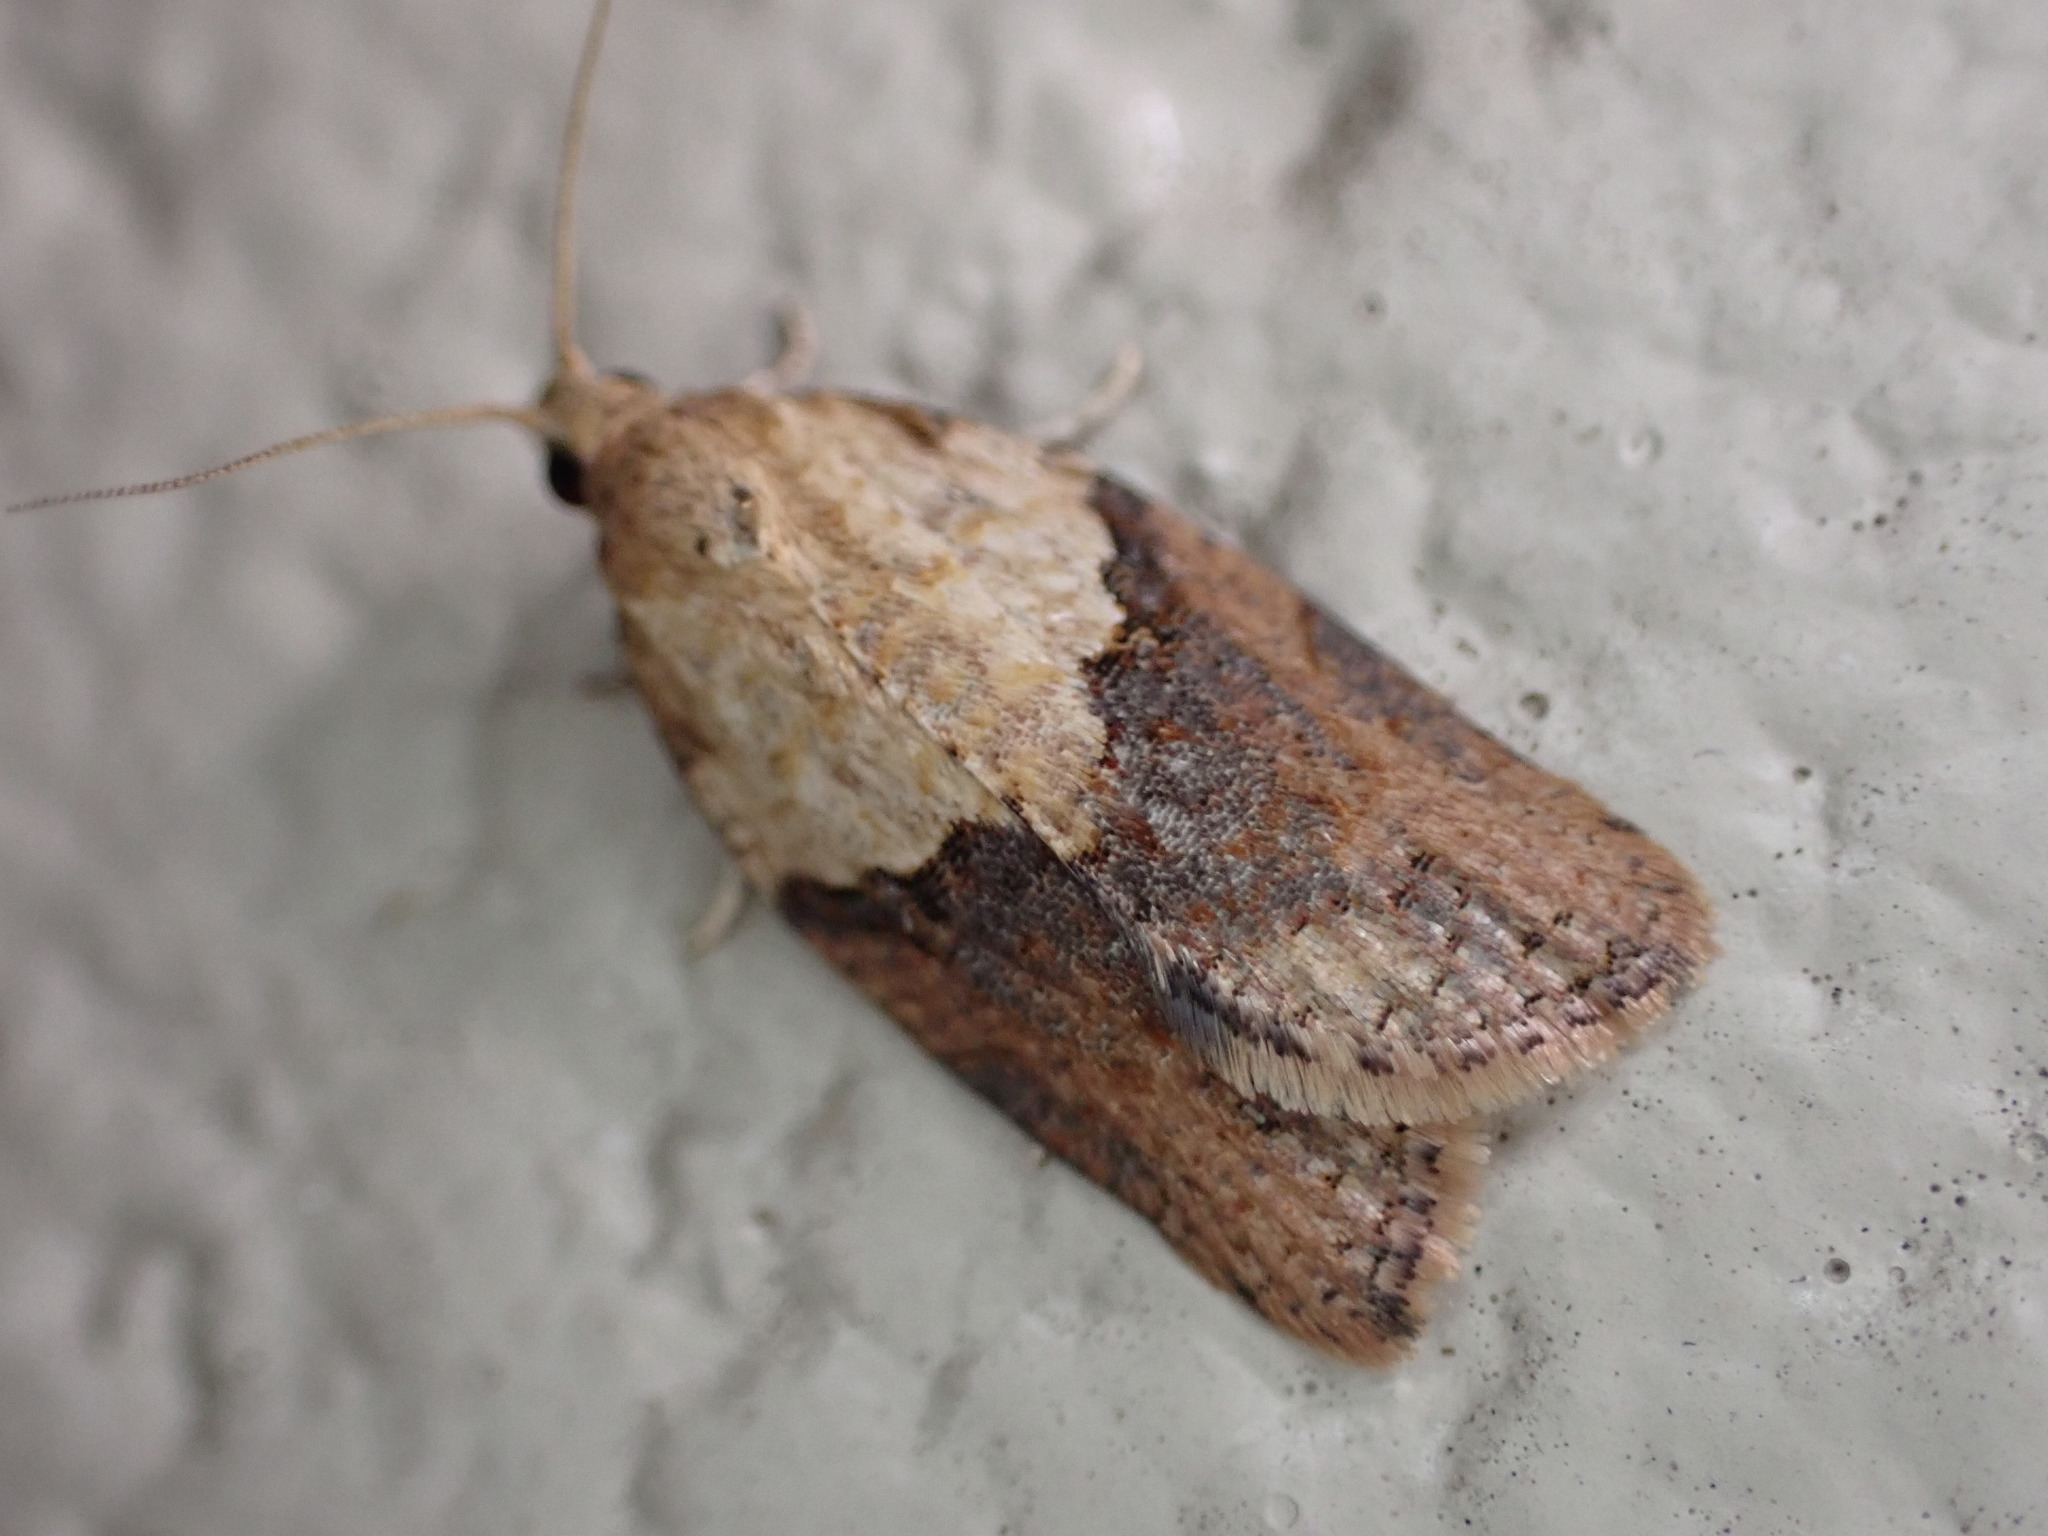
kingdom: Animalia
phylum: Arthropoda
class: Insecta
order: Lepidoptera
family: Tortricidae
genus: Epiphyas
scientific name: Epiphyas postvittana
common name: Light brown apple moth
